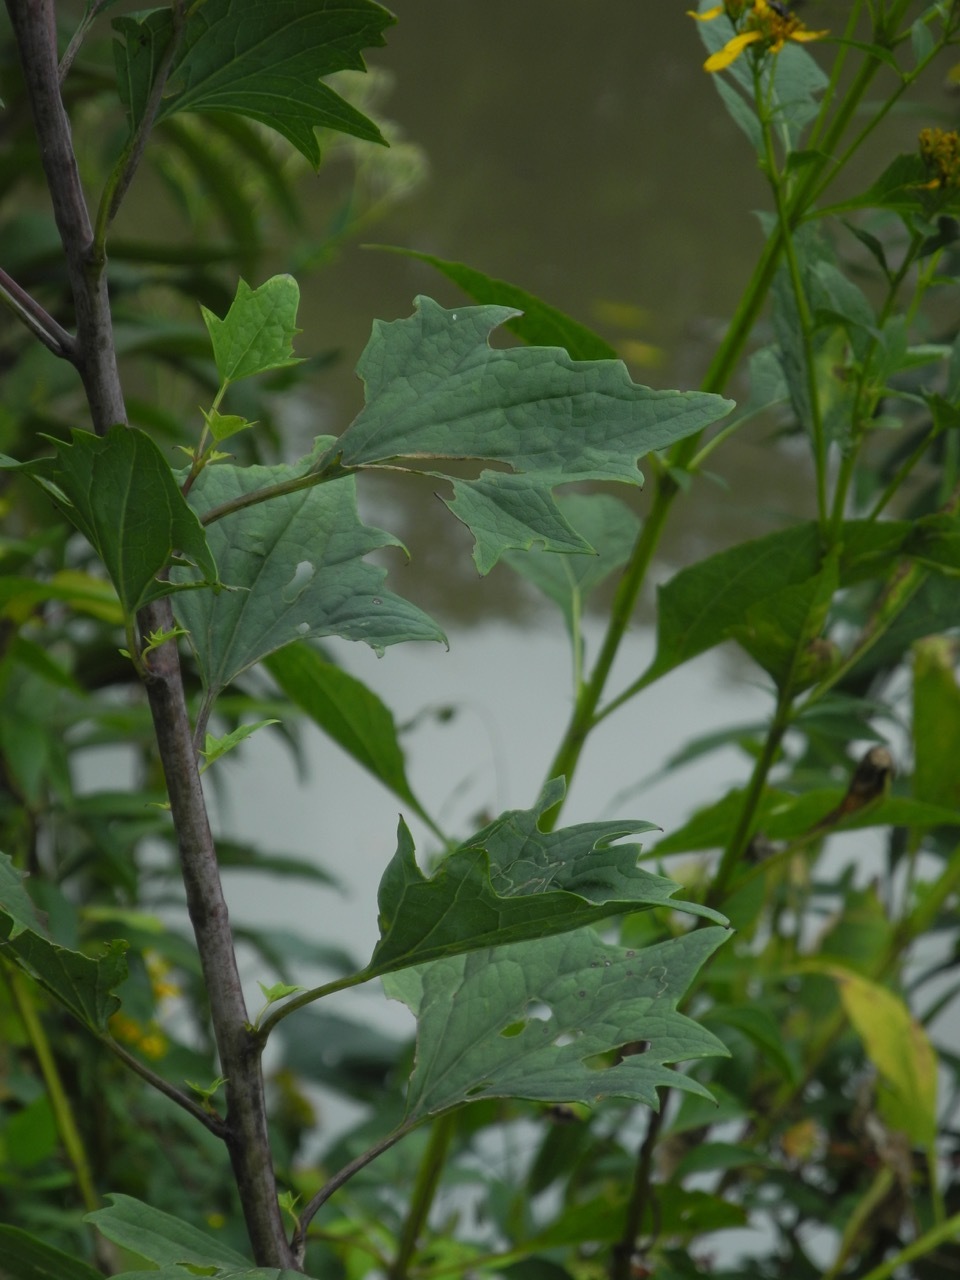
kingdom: Plantae
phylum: Tracheophyta
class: Magnoliopsida
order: Asterales
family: Asteraceae
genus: Arnoglossum
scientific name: Arnoglossum atriplicifolium
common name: Pale indian-plantain
